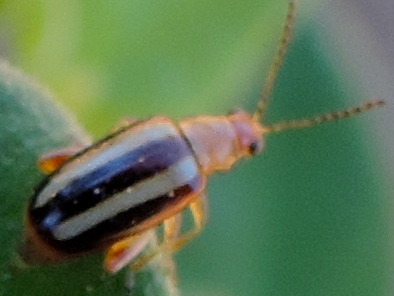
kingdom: Animalia
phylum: Arthropoda
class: Insecta
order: Coleoptera
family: Chrysomelidae
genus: Systena
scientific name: Systena
